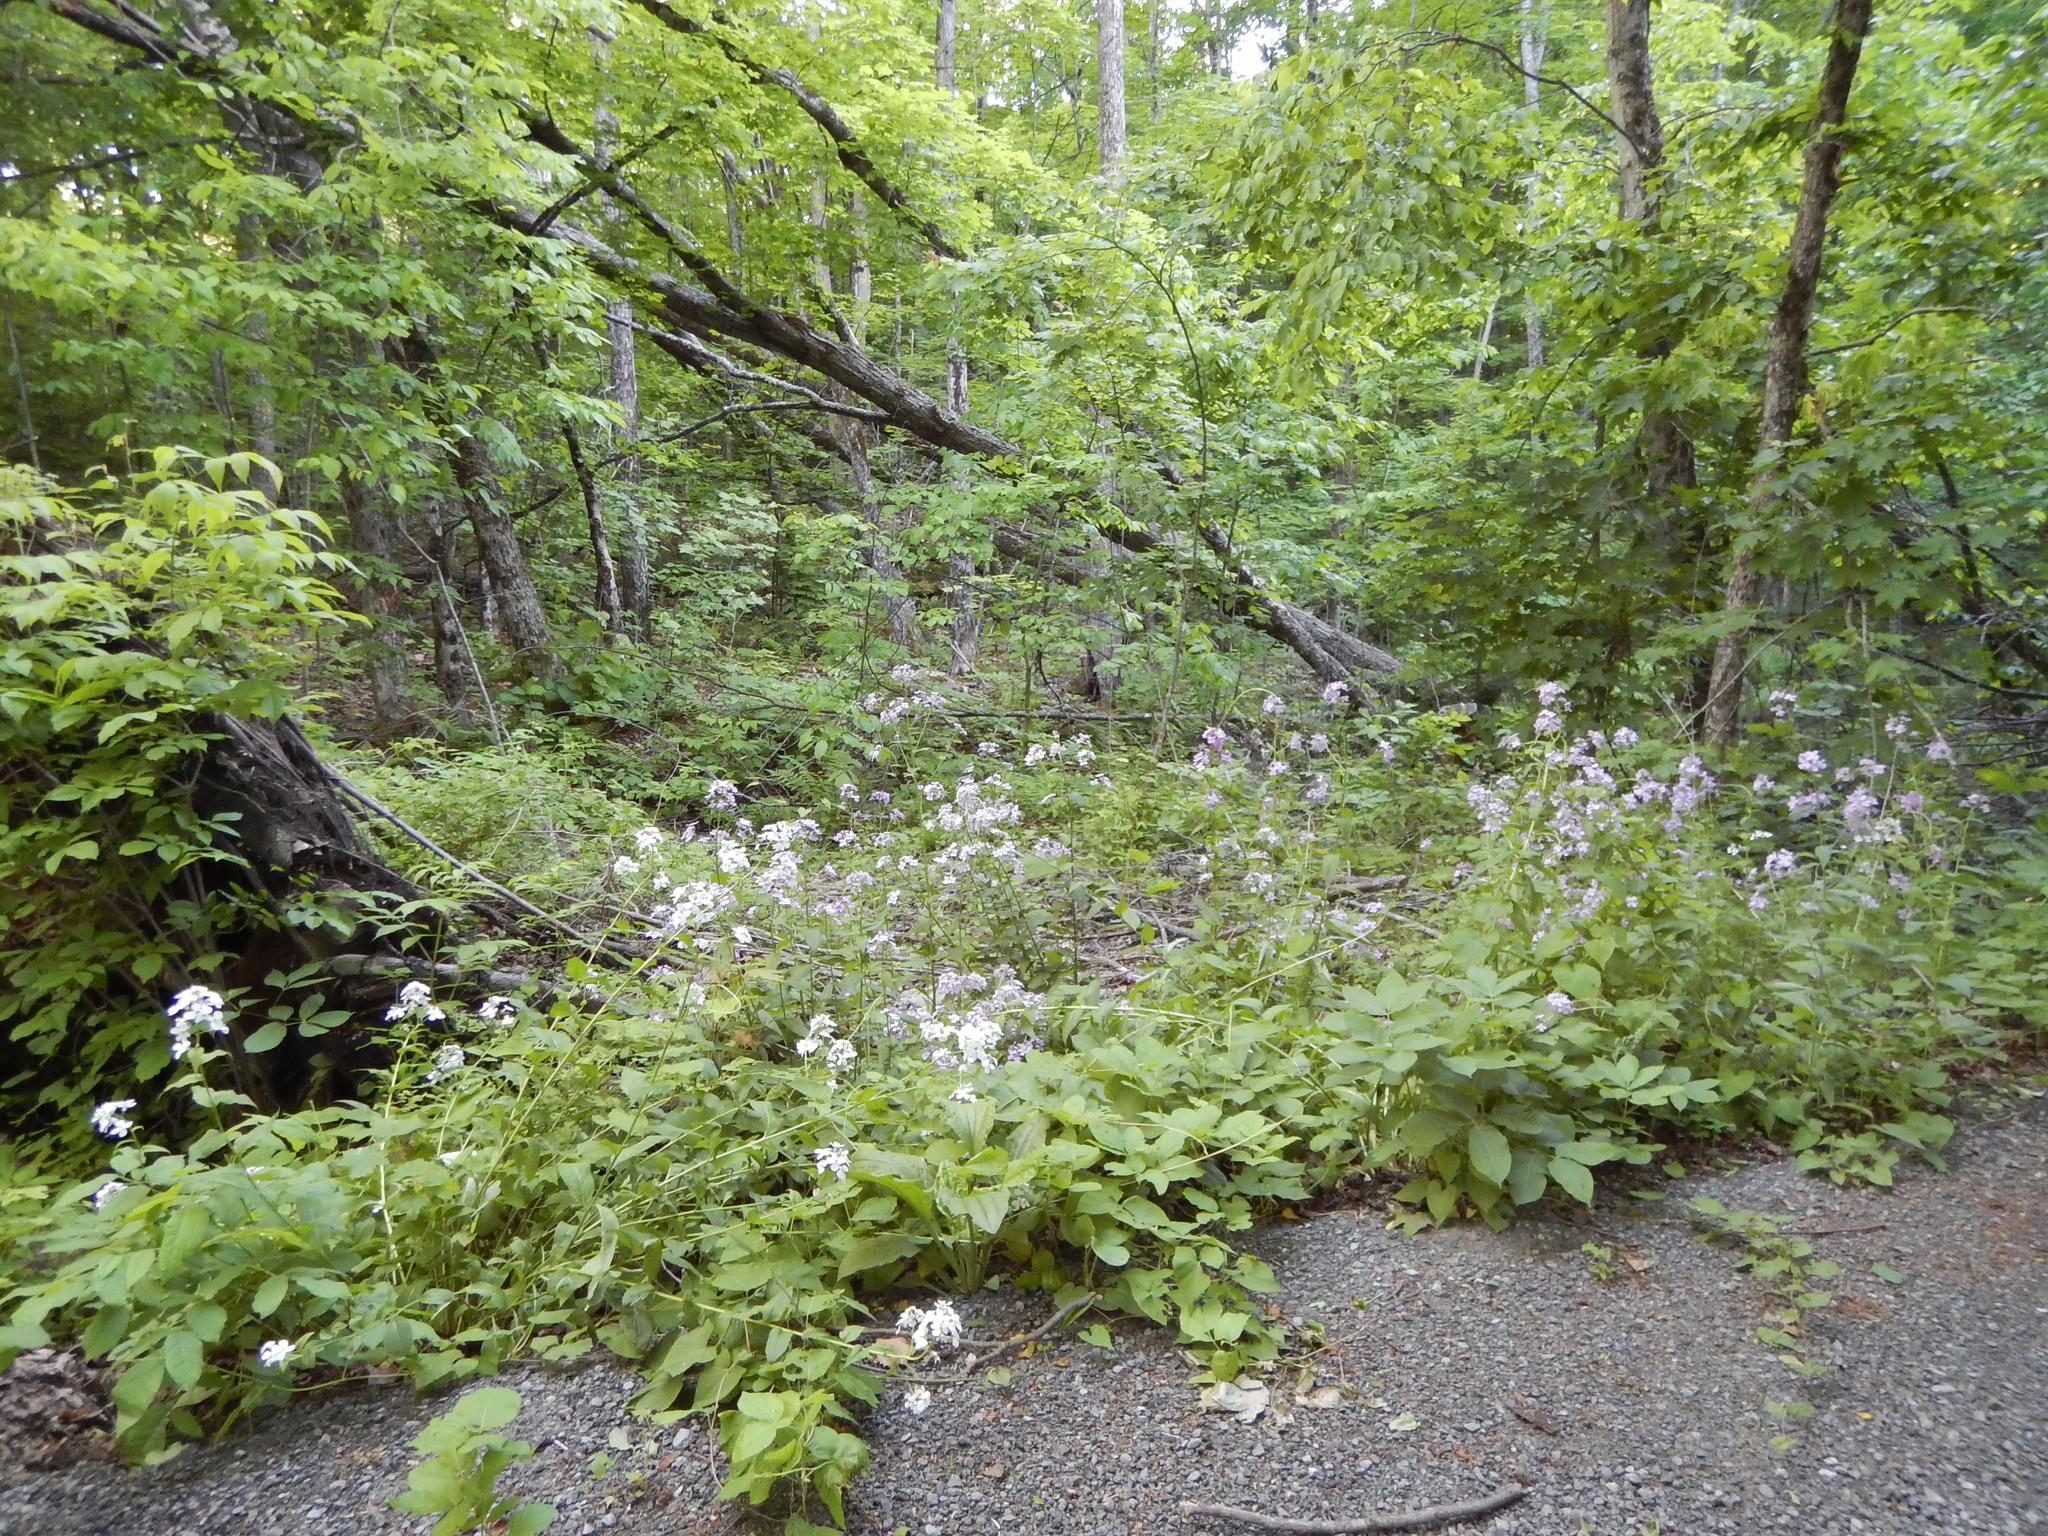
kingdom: Plantae
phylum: Tracheophyta
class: Magnoliopsida
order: Brassicales
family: Brassicaceae
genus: Hesperis
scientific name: Hesperis matronalis
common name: Dame's-violet
